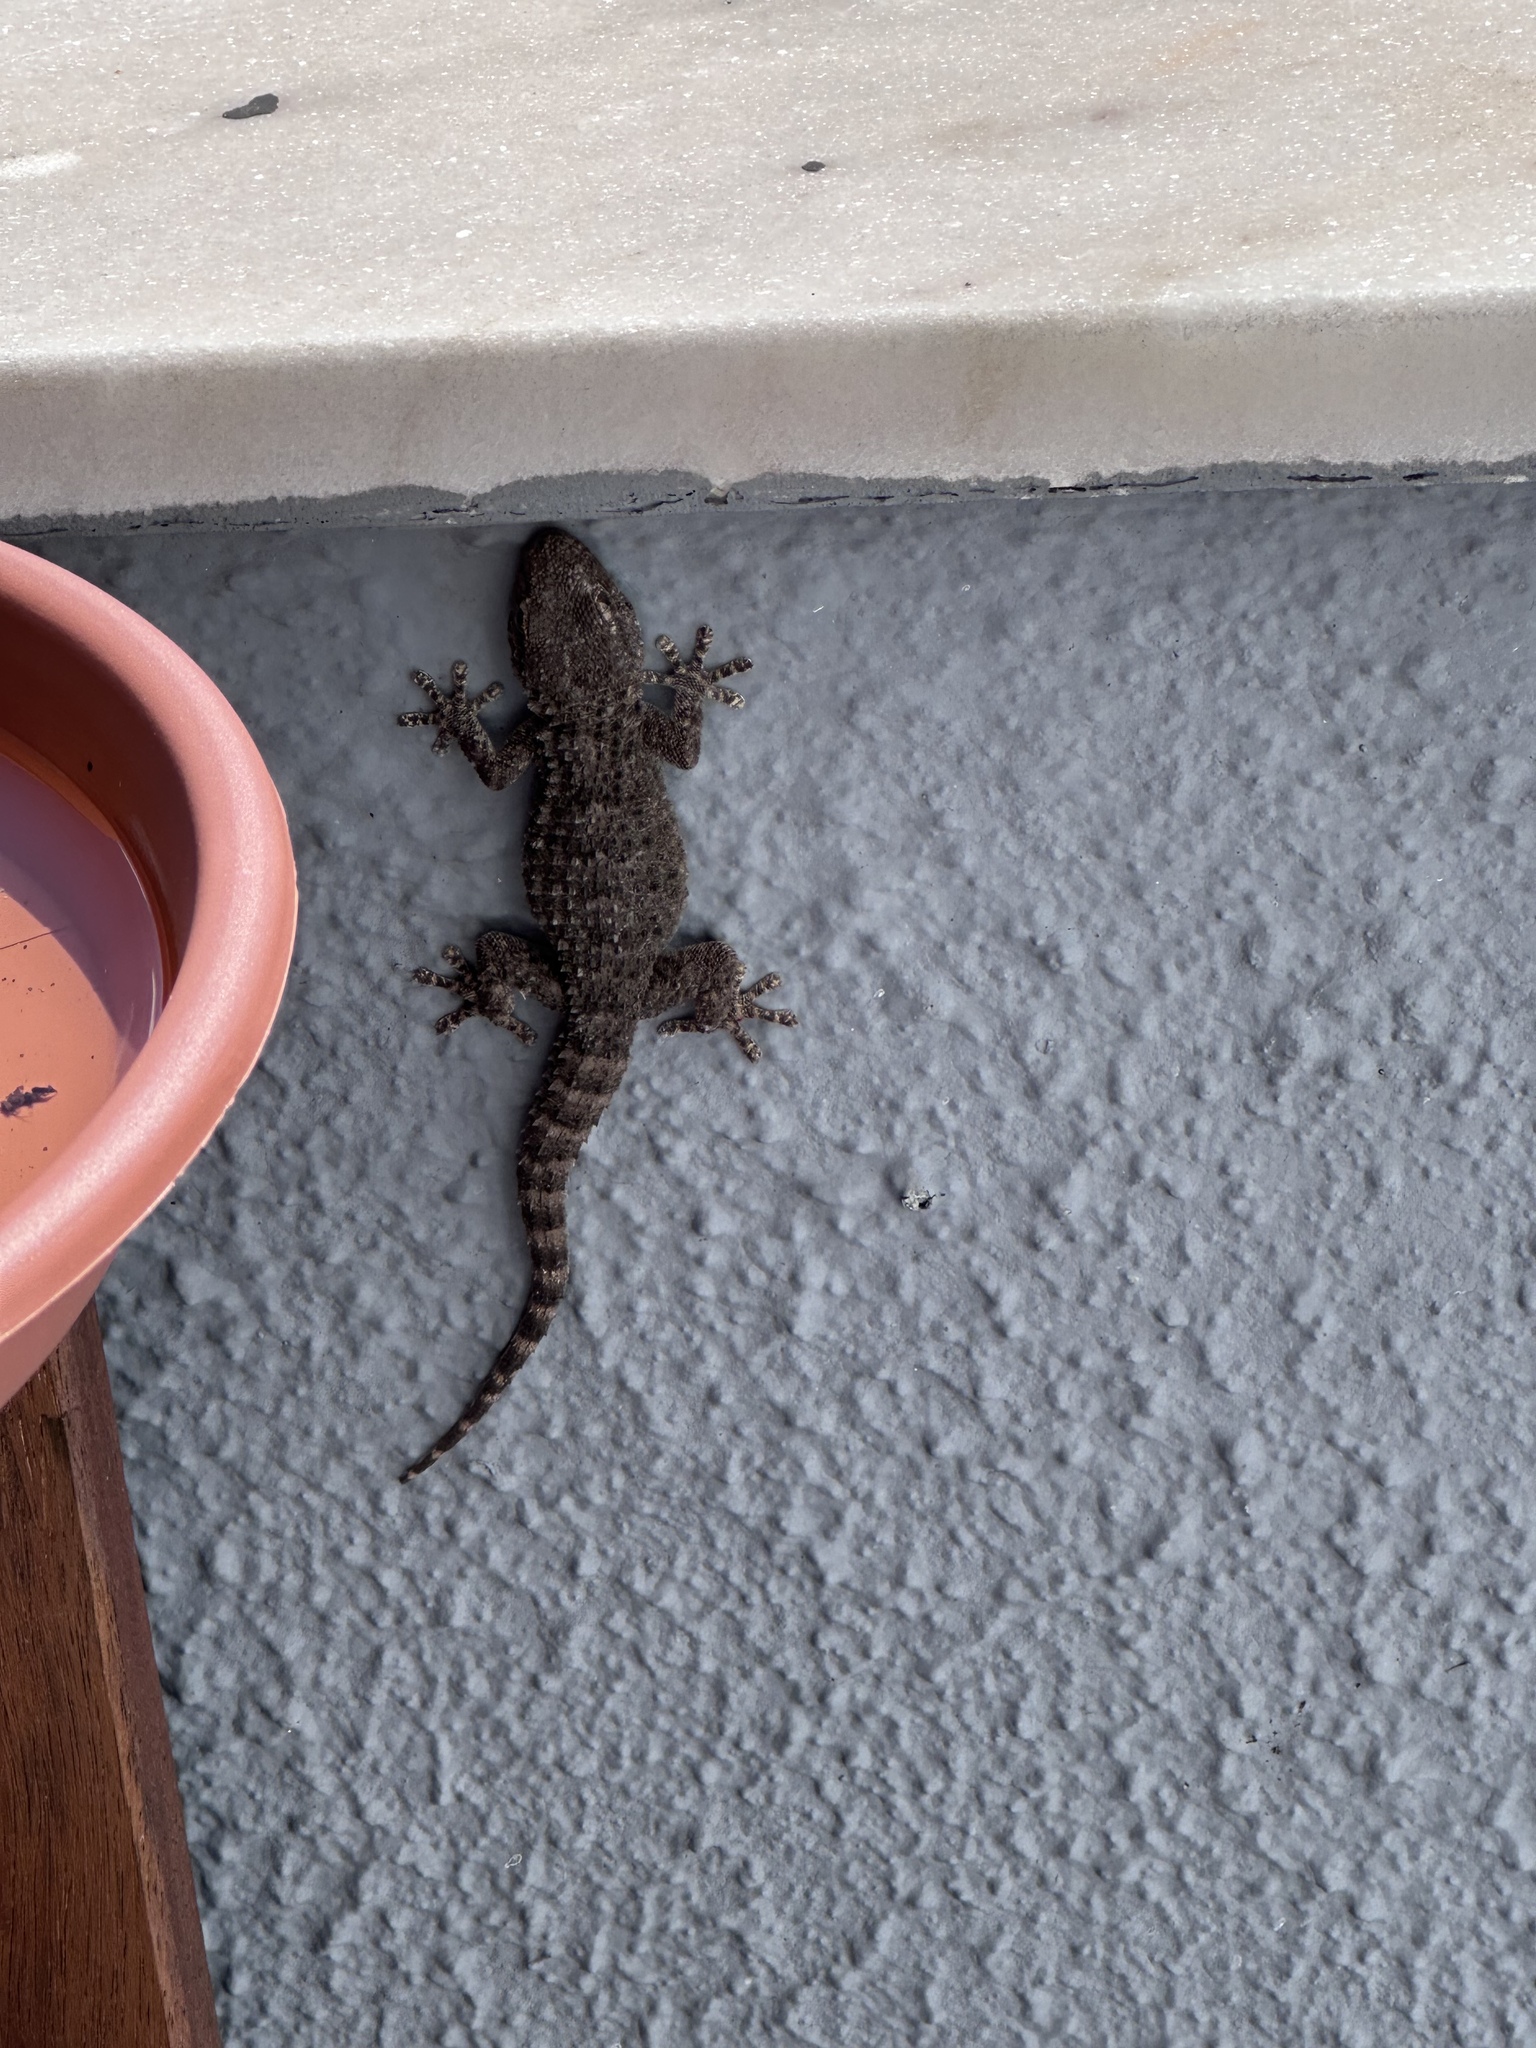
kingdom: Animalia
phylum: Chordata
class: Squamata
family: Phyllodactylidae
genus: Tarentola
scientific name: Tarentola mauritanica
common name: Moorish gecko
